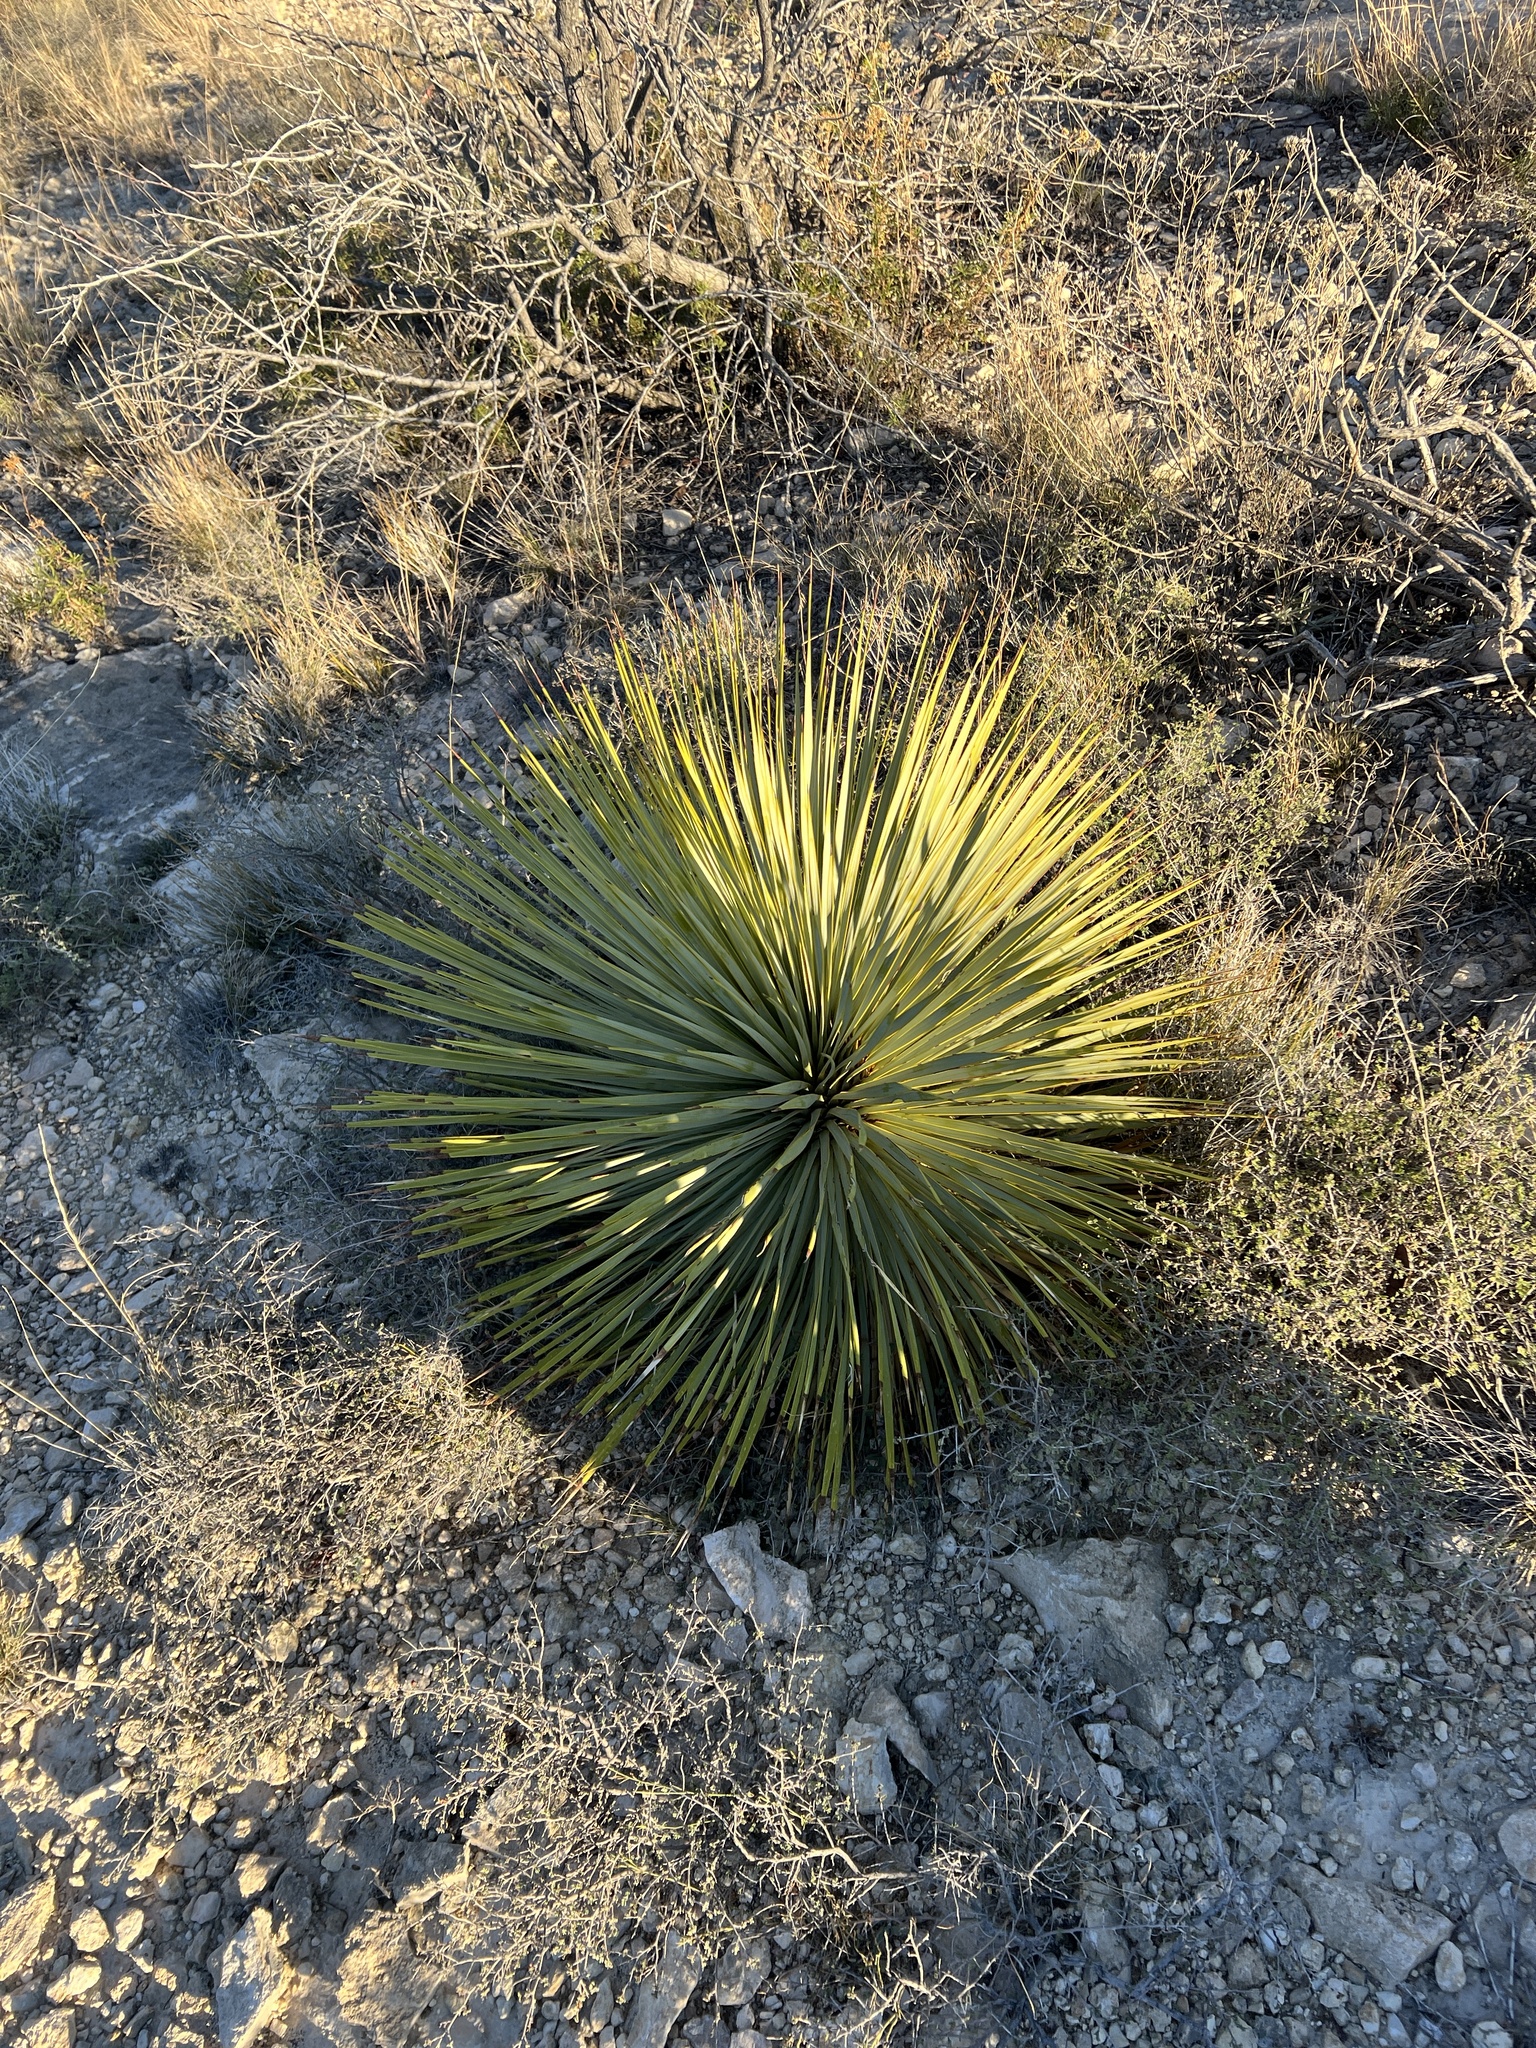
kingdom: Plantae
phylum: Tracheophyta
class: Liliopsida
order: Asparagales
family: Asparagaceae
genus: Yucca
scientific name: Yucca thompsoniana
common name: Trans-pecos yucca
